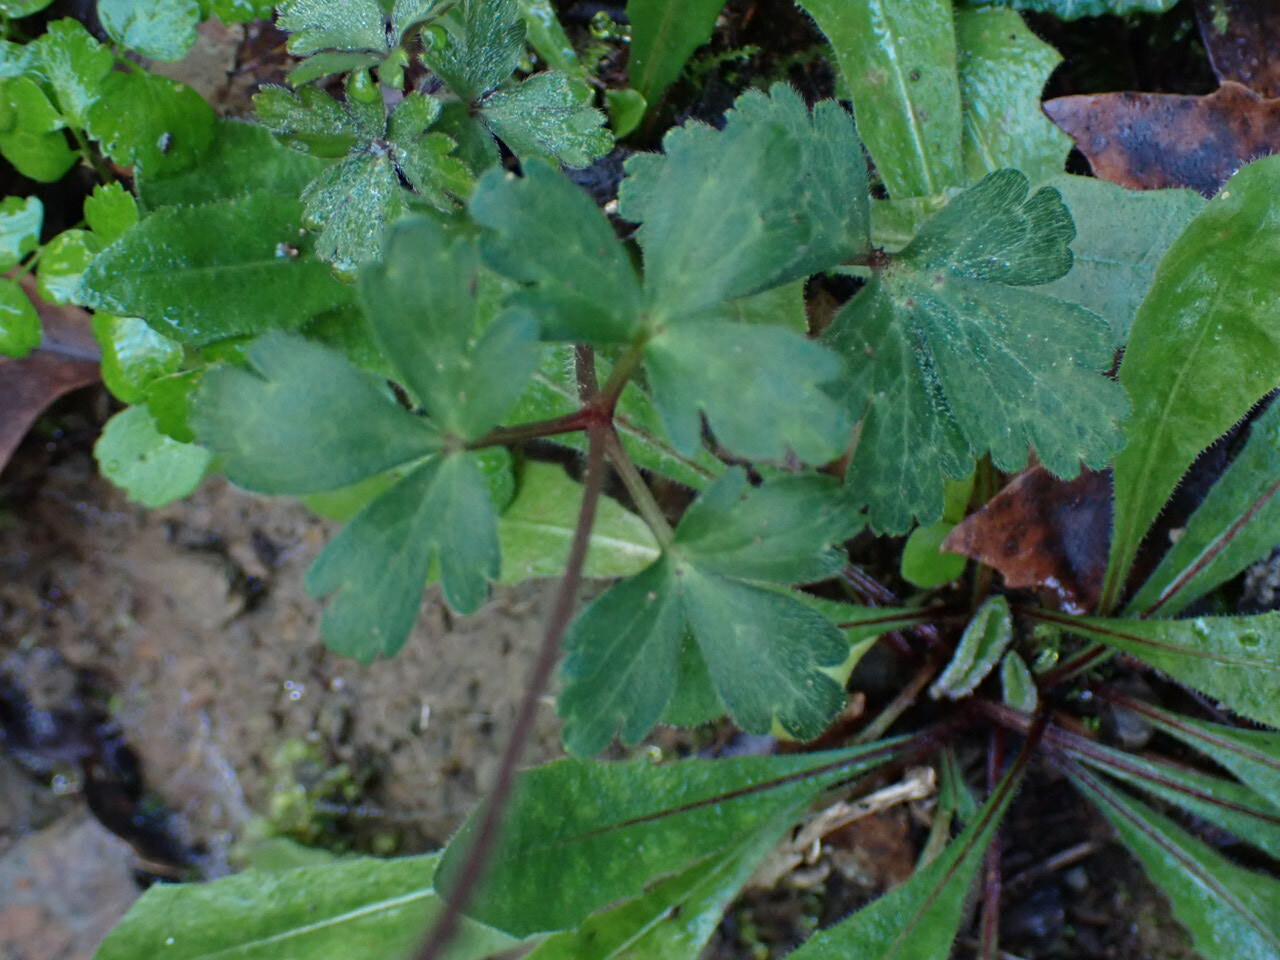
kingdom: Plantae
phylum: Tracheophyta
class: Magnoliopsida
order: Ranunculales
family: Ranunculaceae
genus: Anemone
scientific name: Anemone blanda
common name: Balkan anemone
